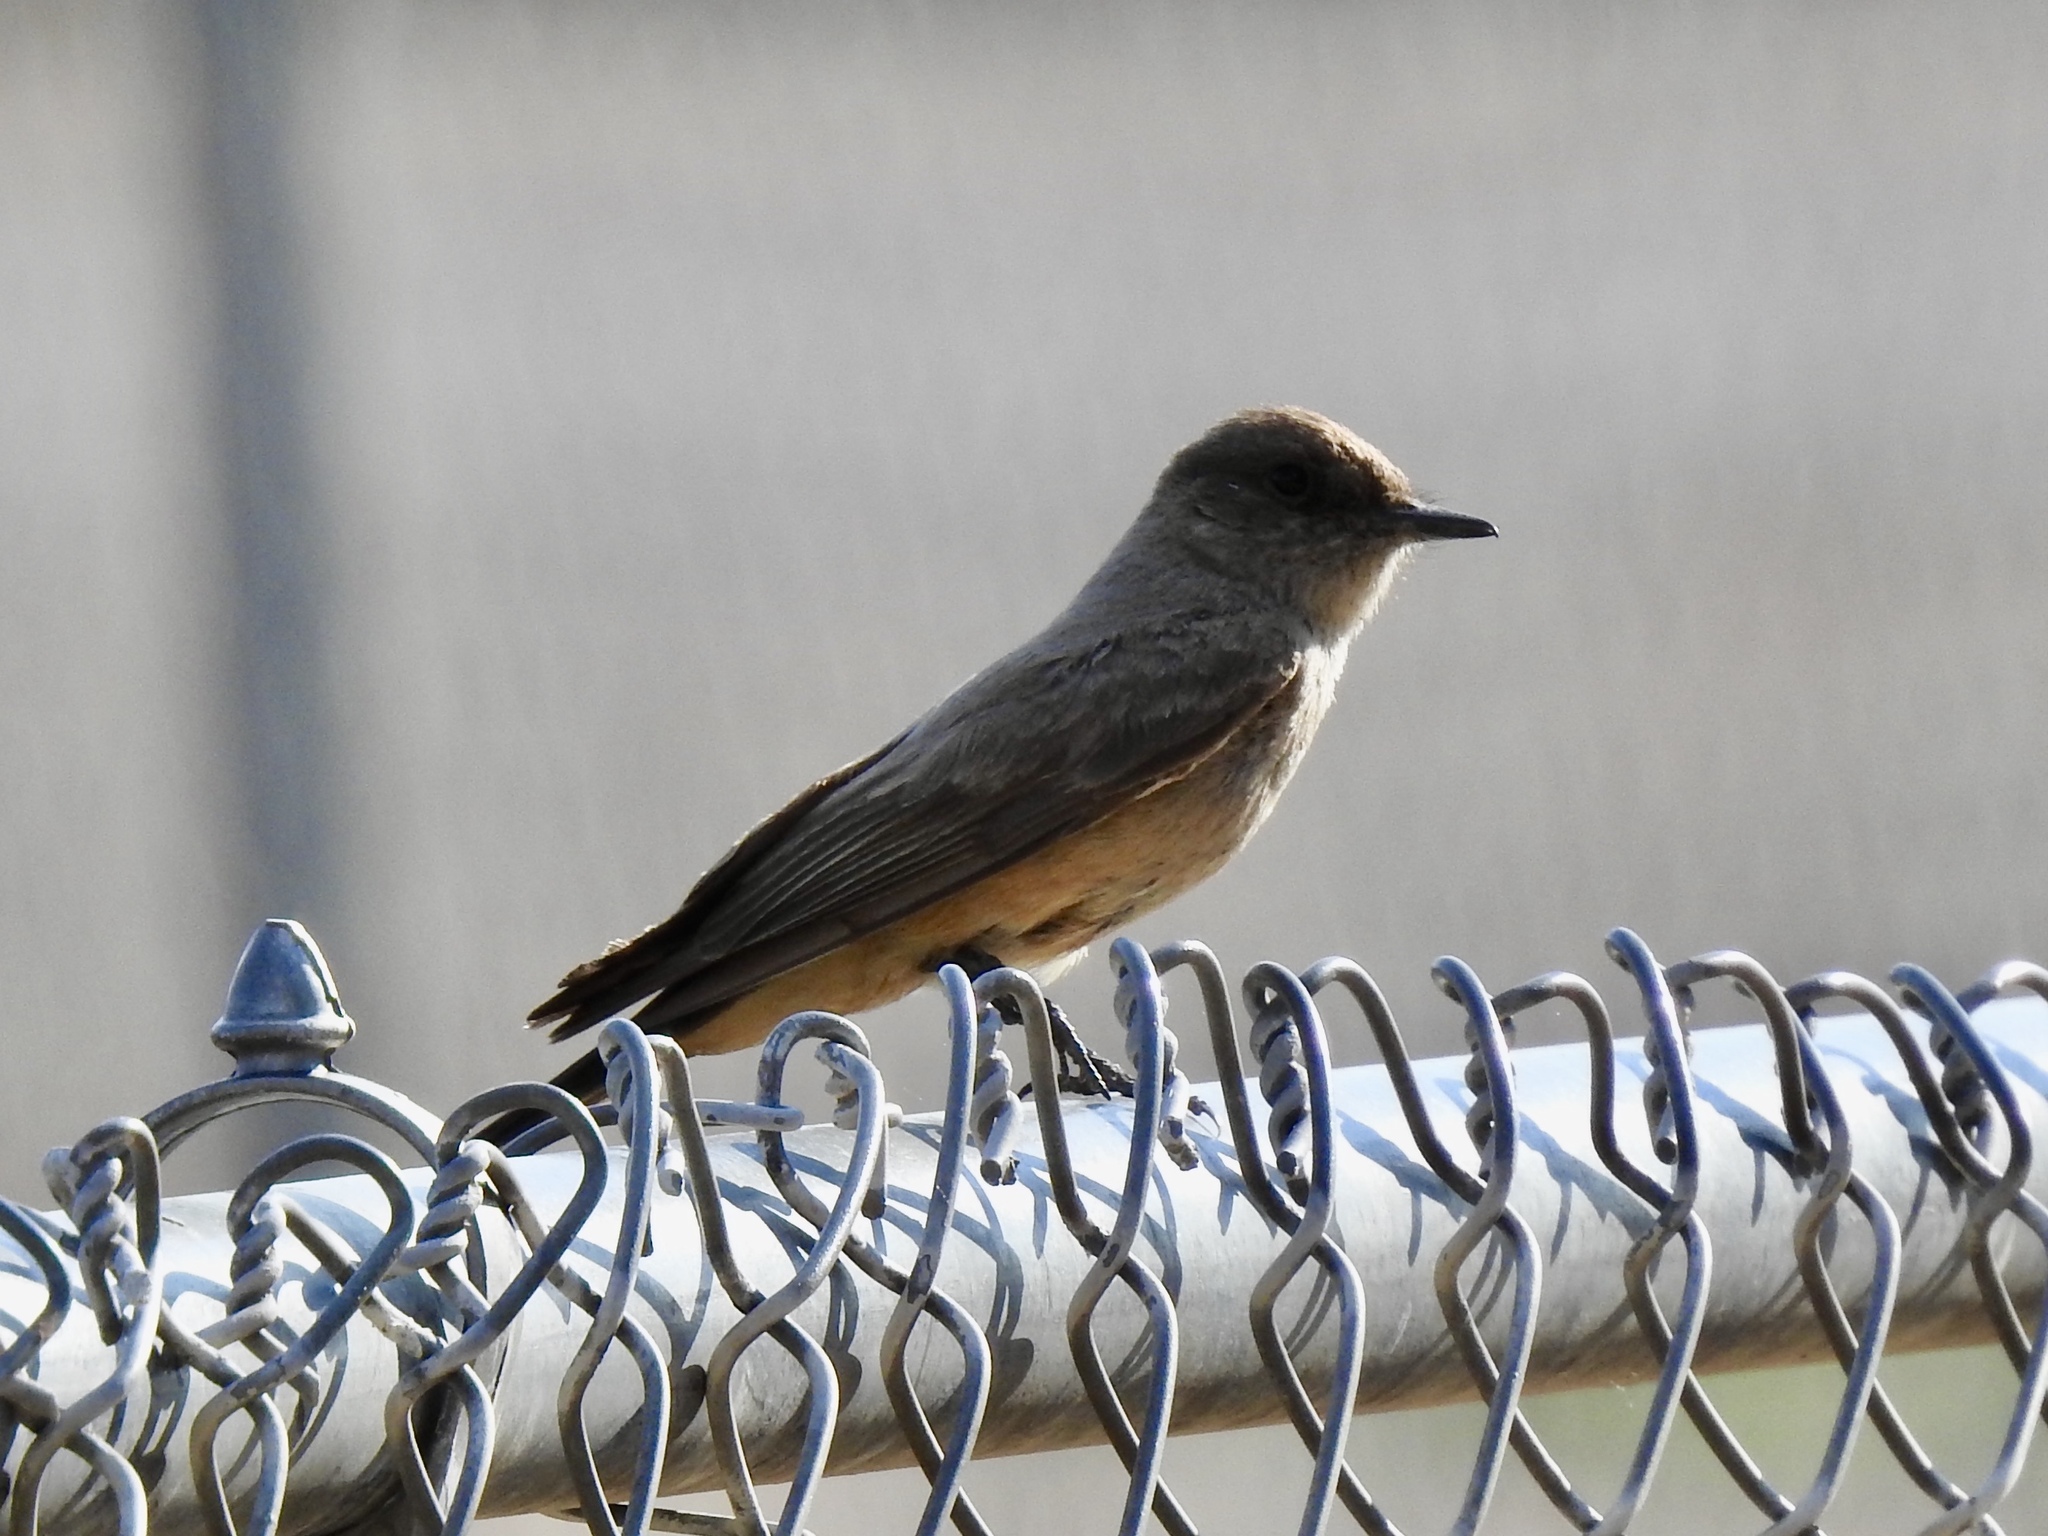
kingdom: Animalia
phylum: Chordata
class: Aves
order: Passeriformes
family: Tyrannidae
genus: Sayornis
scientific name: Sayornis saya
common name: Say's phoebe
